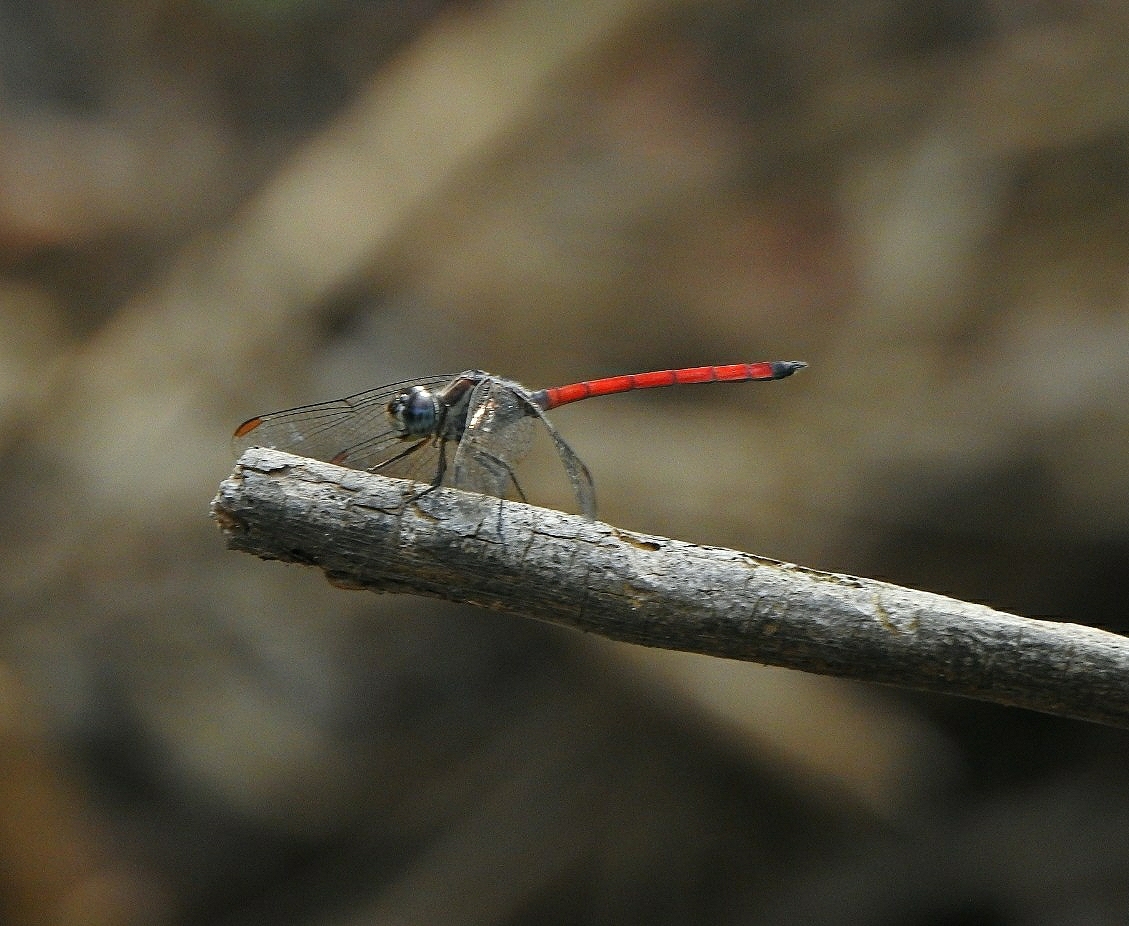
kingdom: Animalia
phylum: Arthropoda
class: Insecta
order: Odonata
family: Libellulidae
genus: Lathrecista
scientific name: Lathrecista asiatica
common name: Scarlet grenadier
